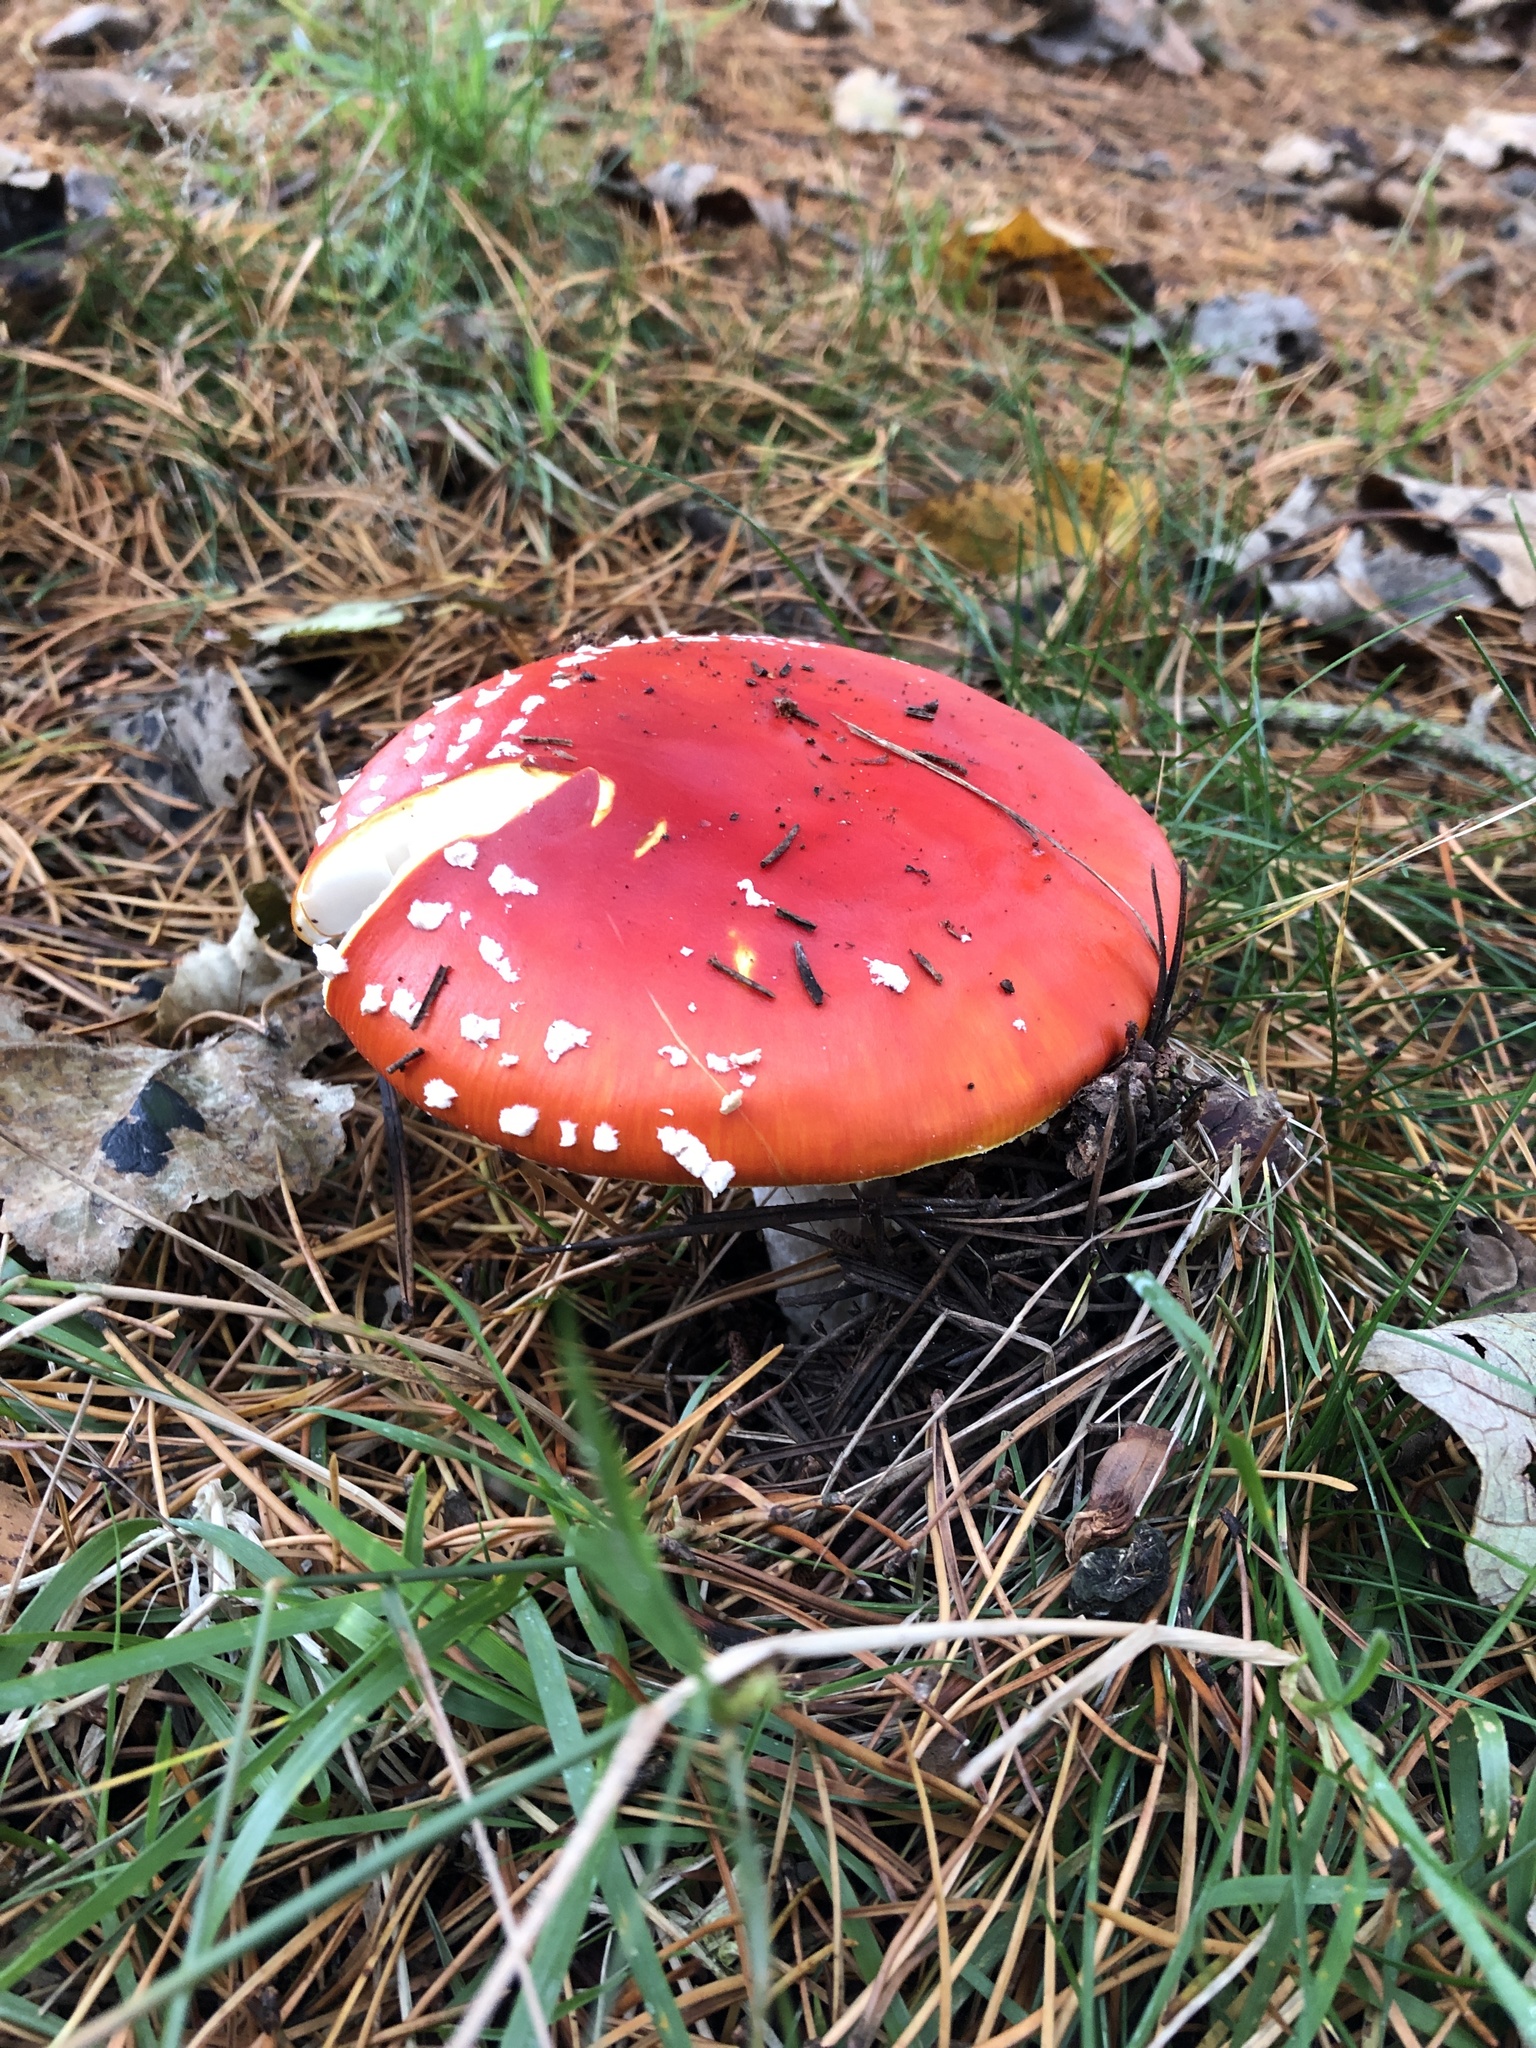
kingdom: Fungi
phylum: Basidiomycota
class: Agaricomycetes
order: Agaricales
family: Amanitaceae
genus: Amanita
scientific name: Amanita muscaria
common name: Fly agaric
